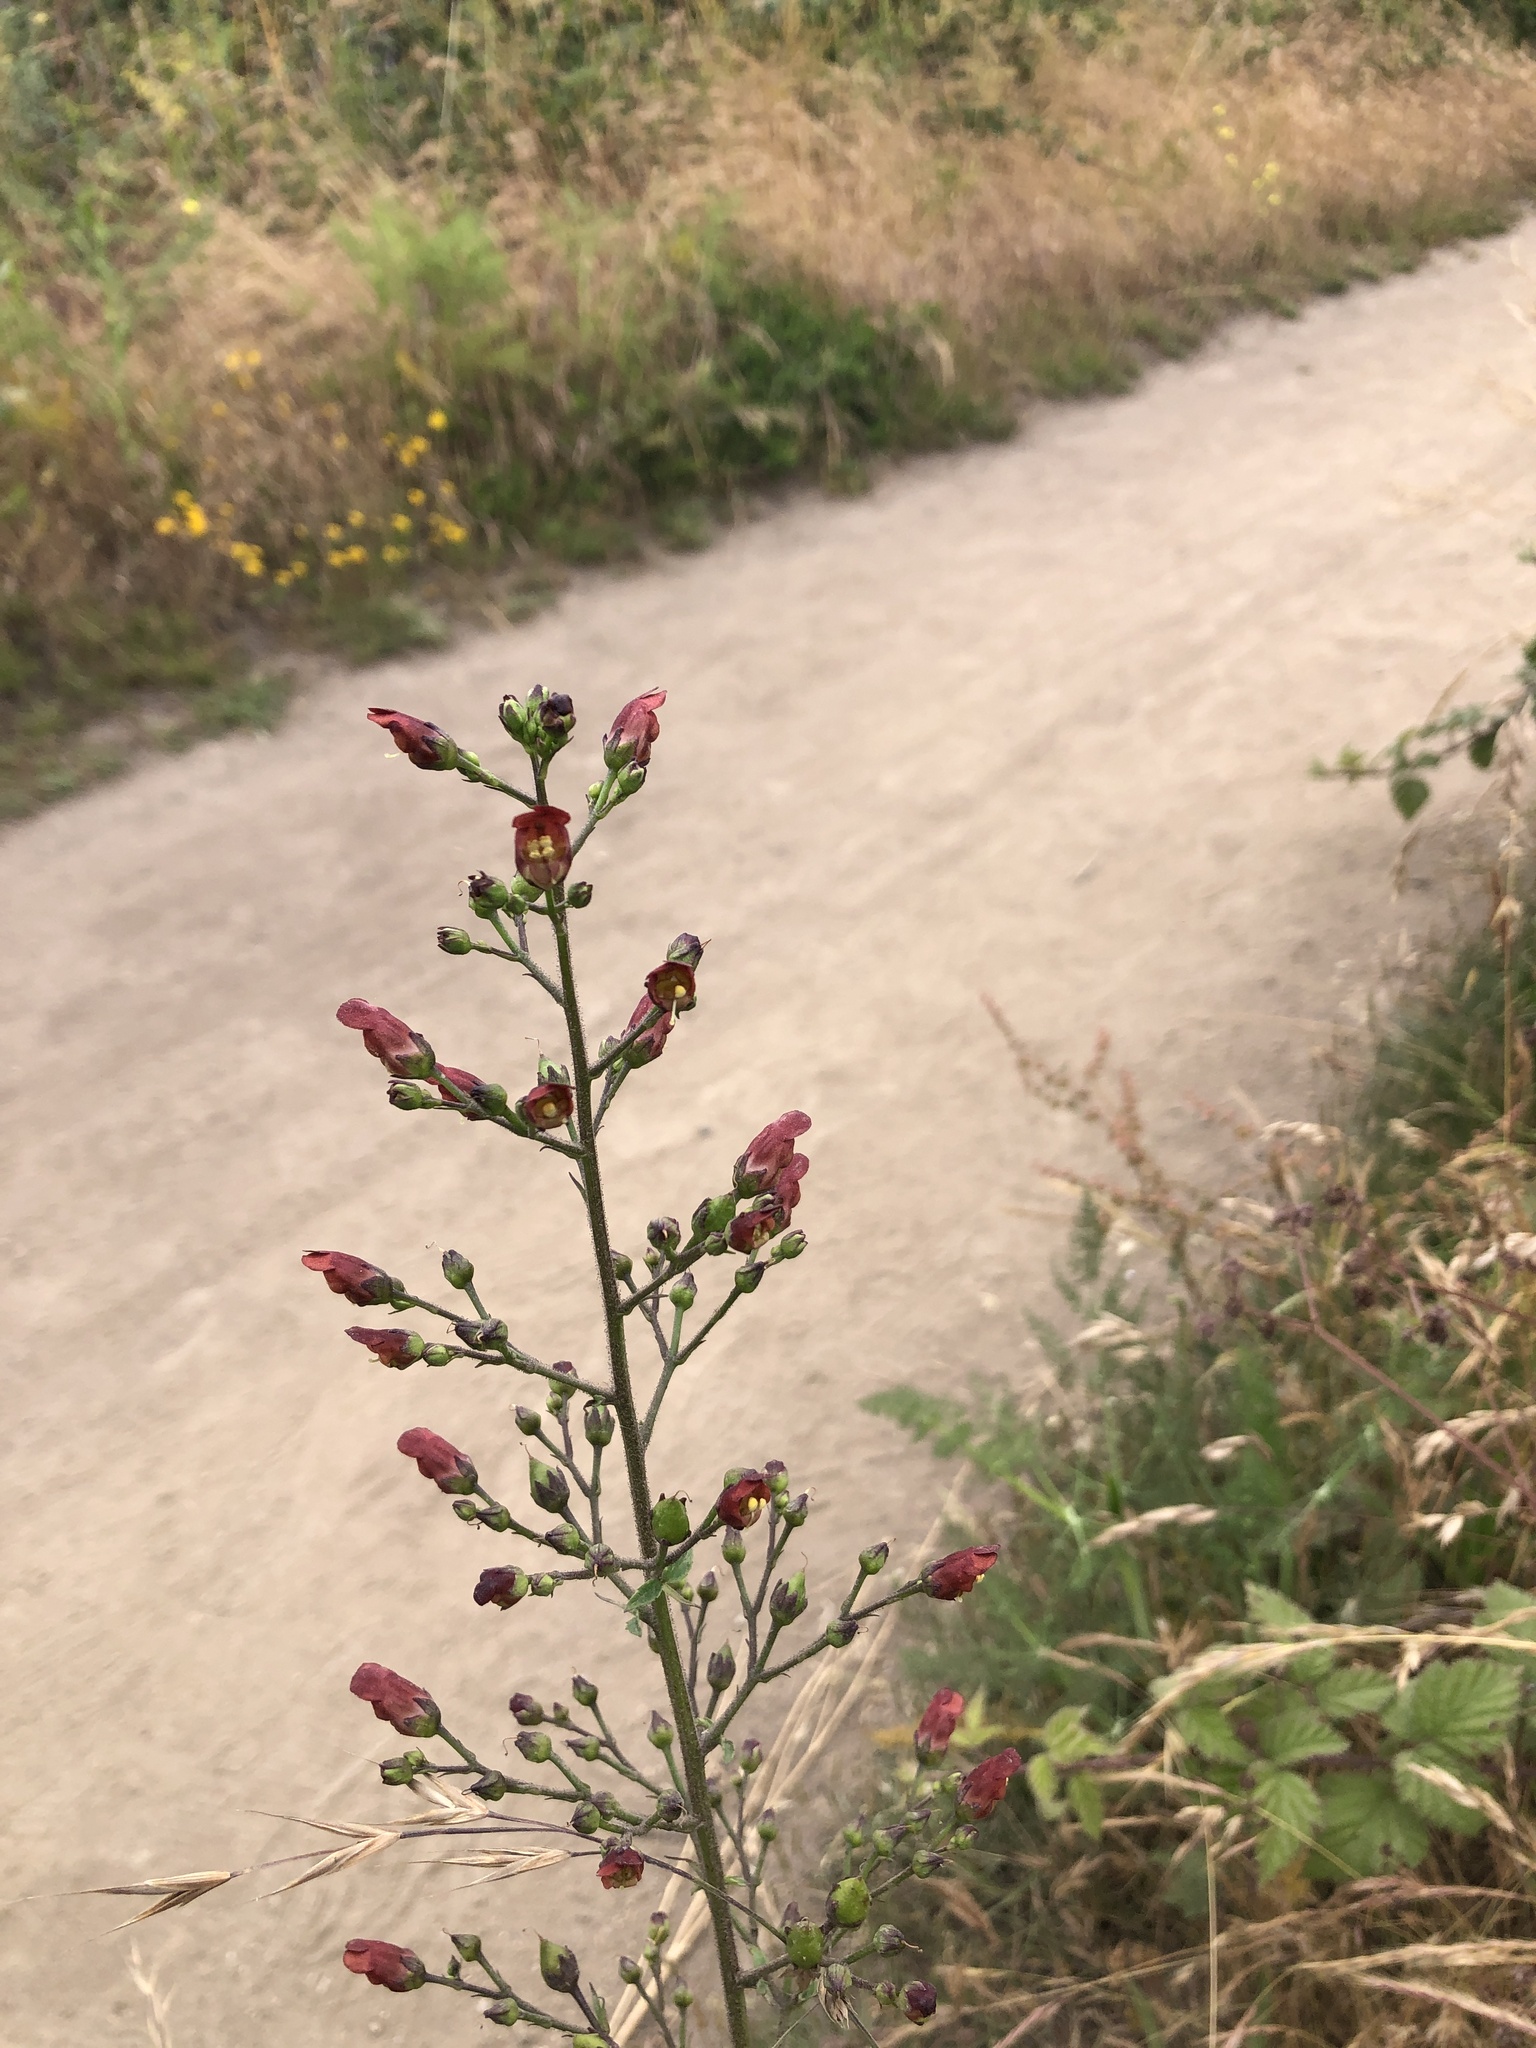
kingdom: Plantae
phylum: Tracheophyta
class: Magnoliopsida
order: Lamiales
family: Scrophulariaceae
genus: Scrophularia
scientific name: Scrophularia californica
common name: California figwort
